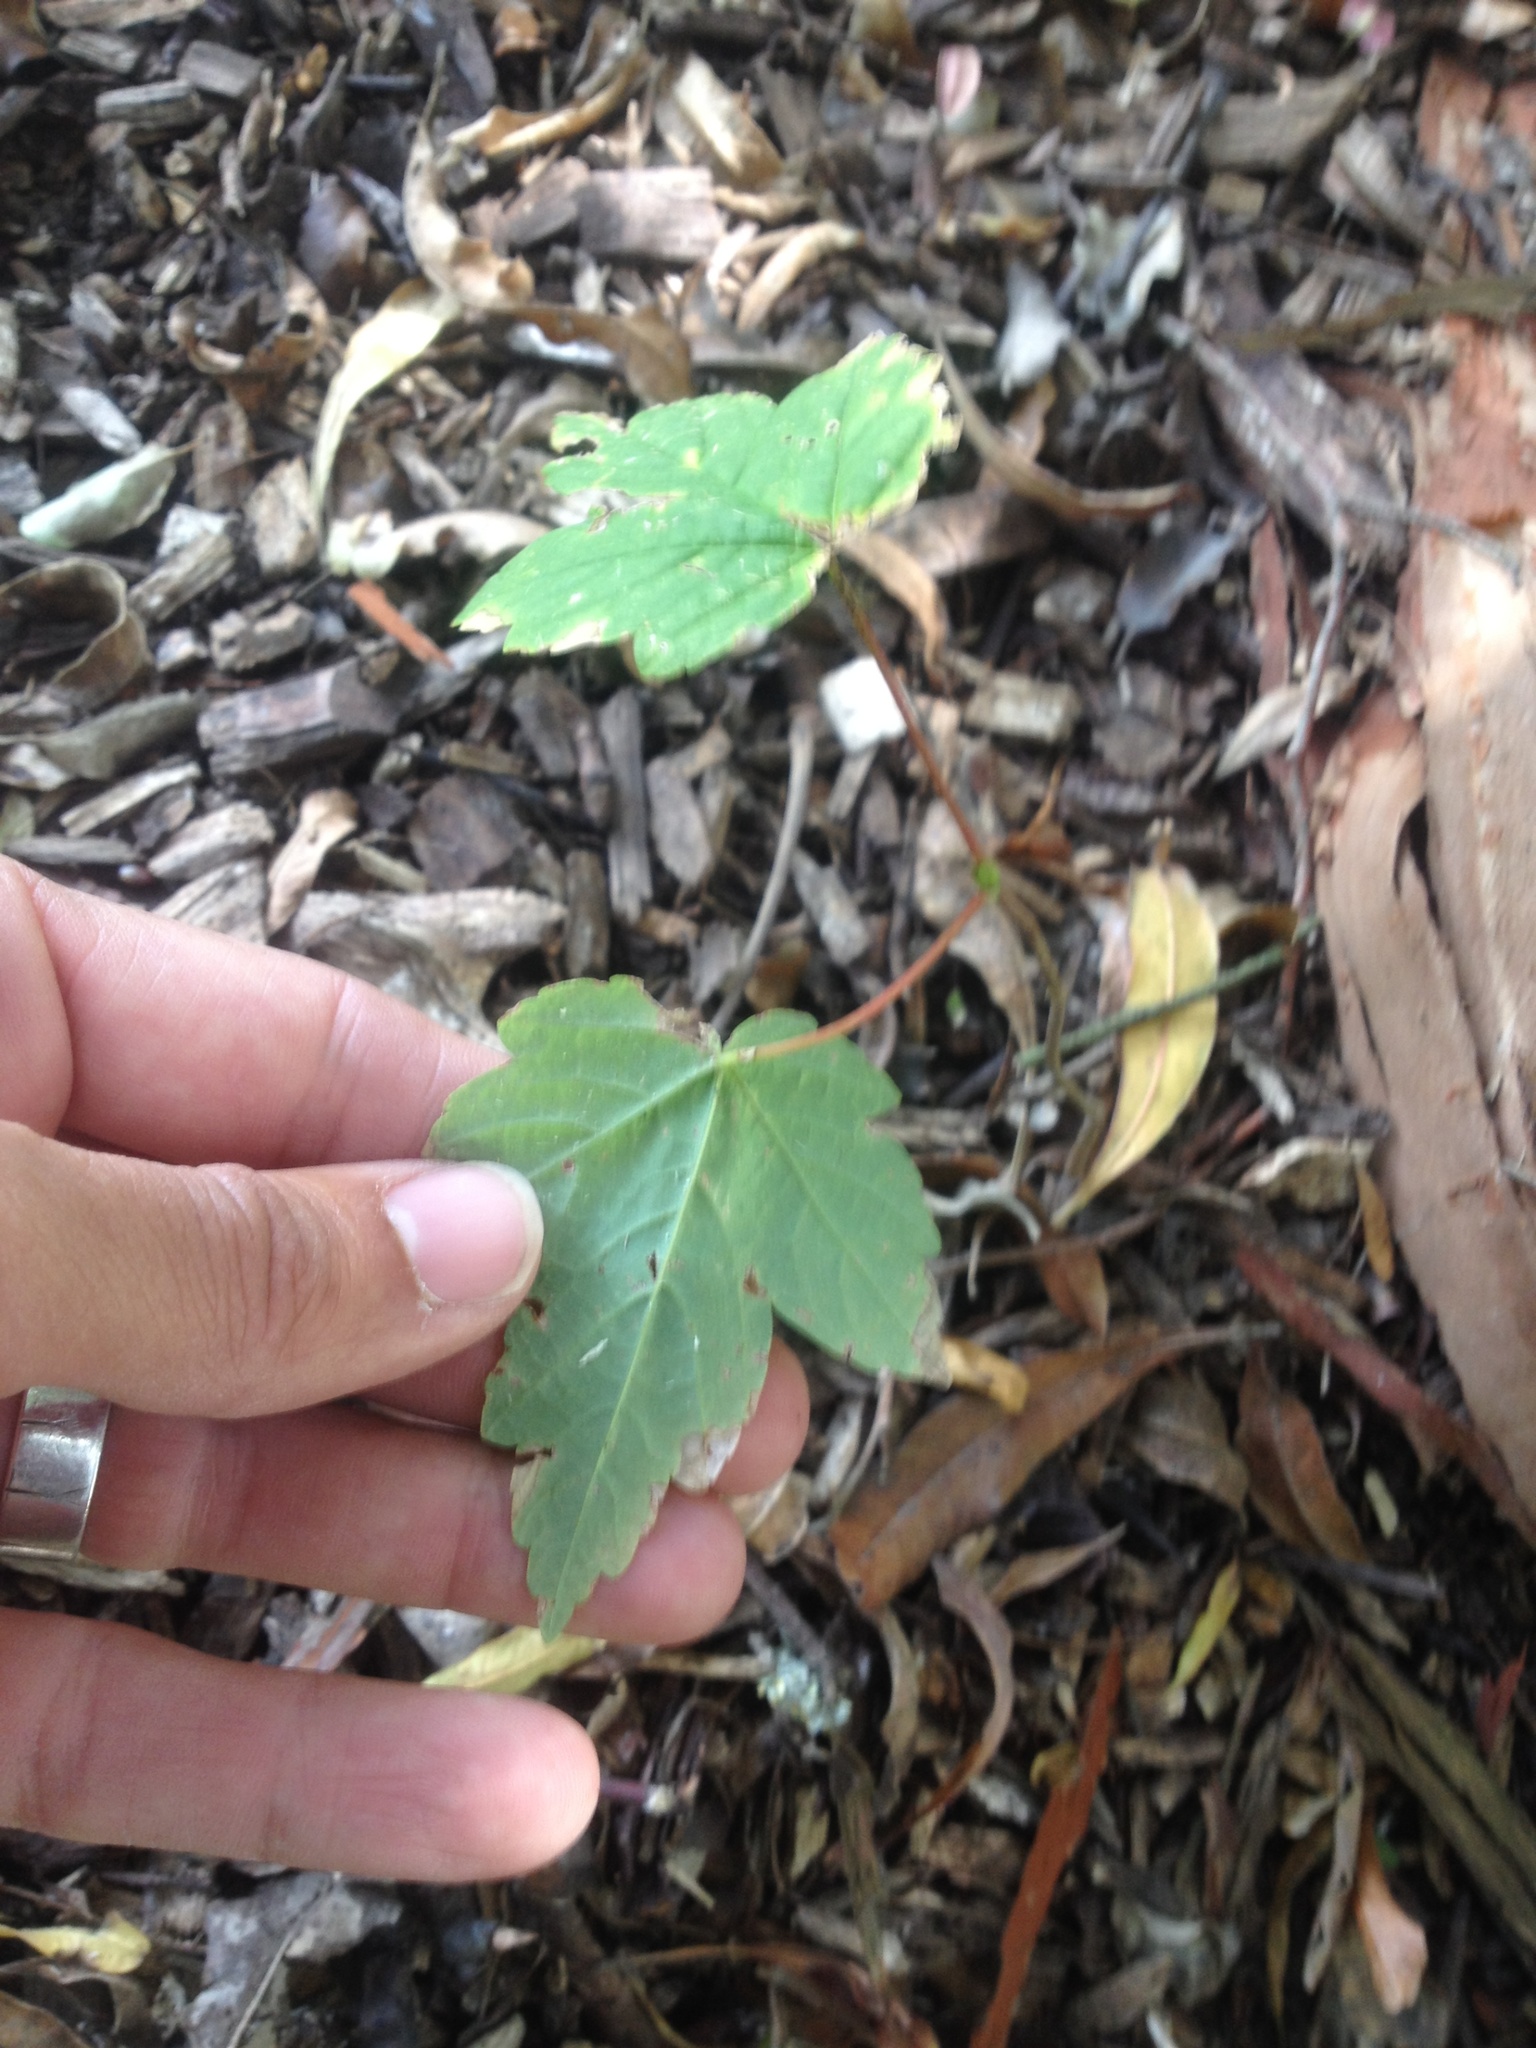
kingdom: Plantae
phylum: Tracheophyta
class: Magnoliopsida
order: Sapindales
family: Sapindaceae
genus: Acer
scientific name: Acer pseudoplatanus
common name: Sycamore
